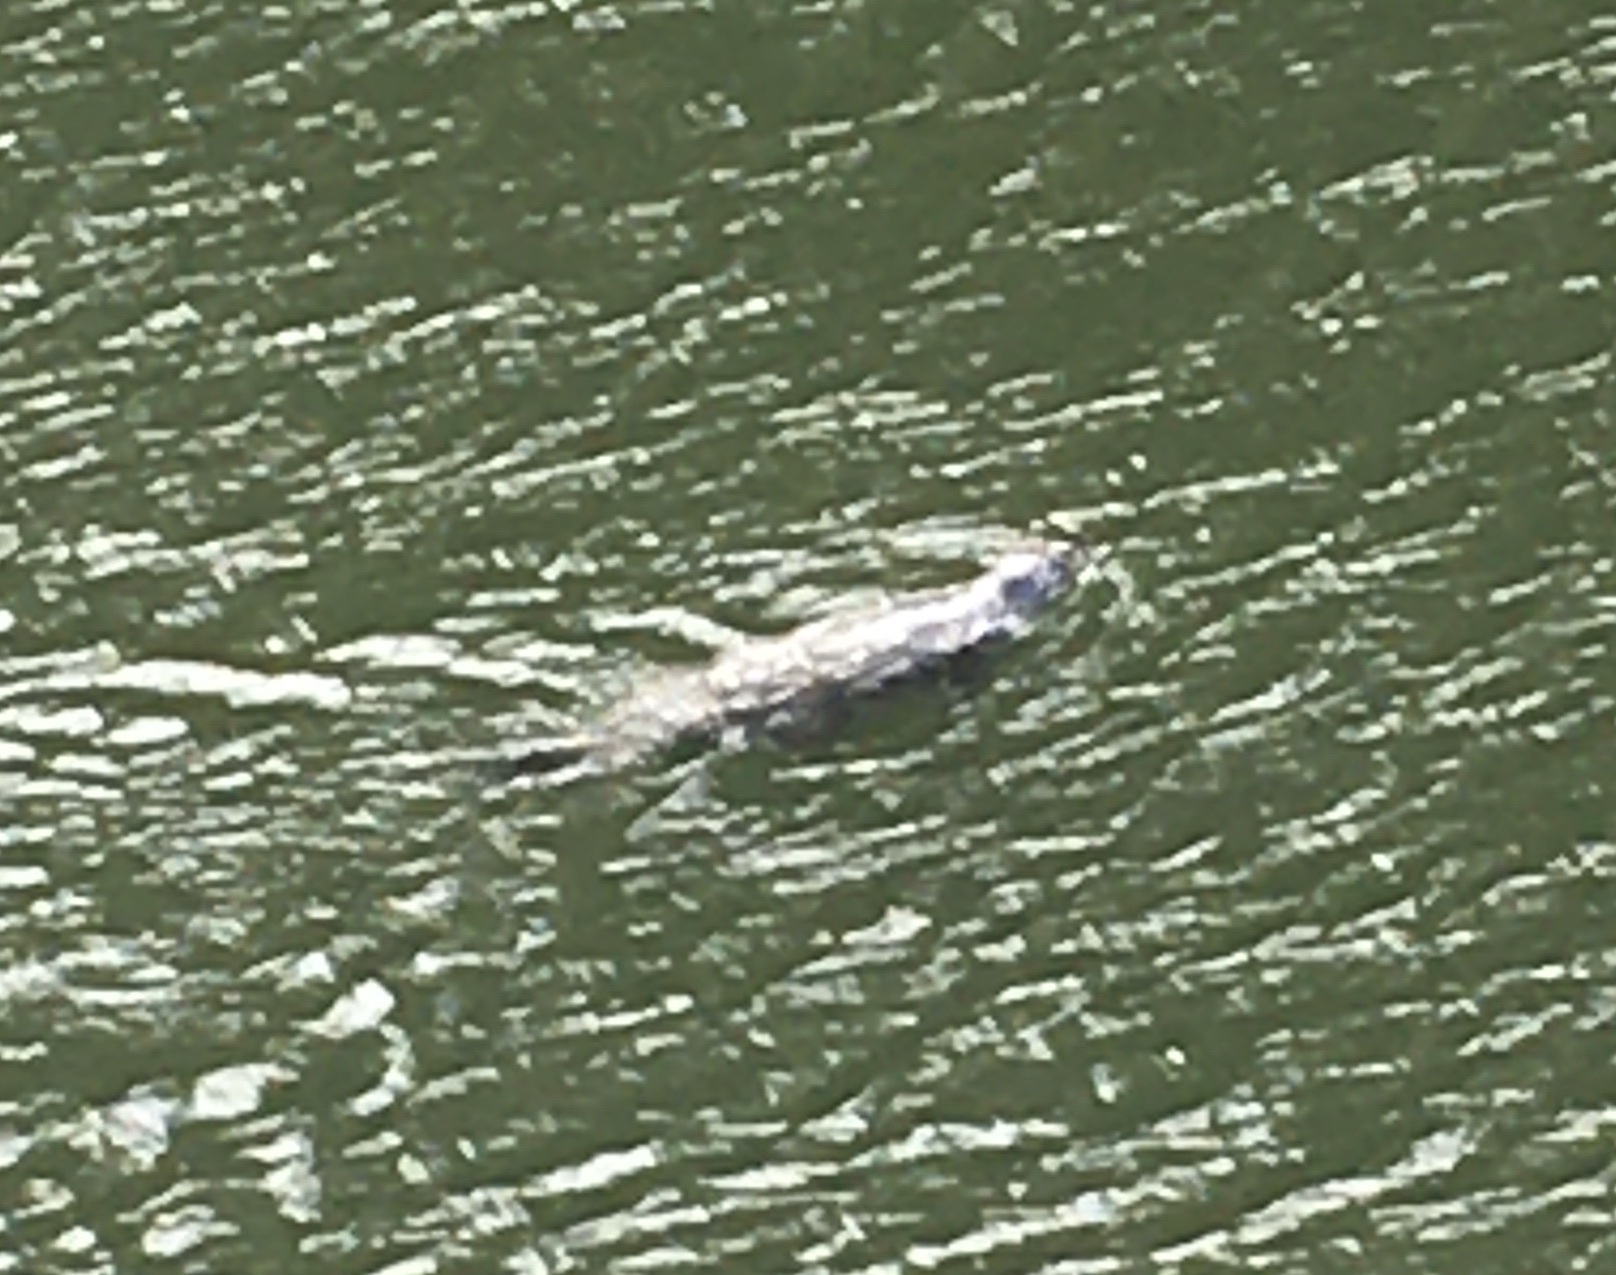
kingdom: Animalia
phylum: Chordata
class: Mammalia
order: Carnivora
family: Phocidae
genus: Phoca
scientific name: Phoca vitulina
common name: Harbor seal
